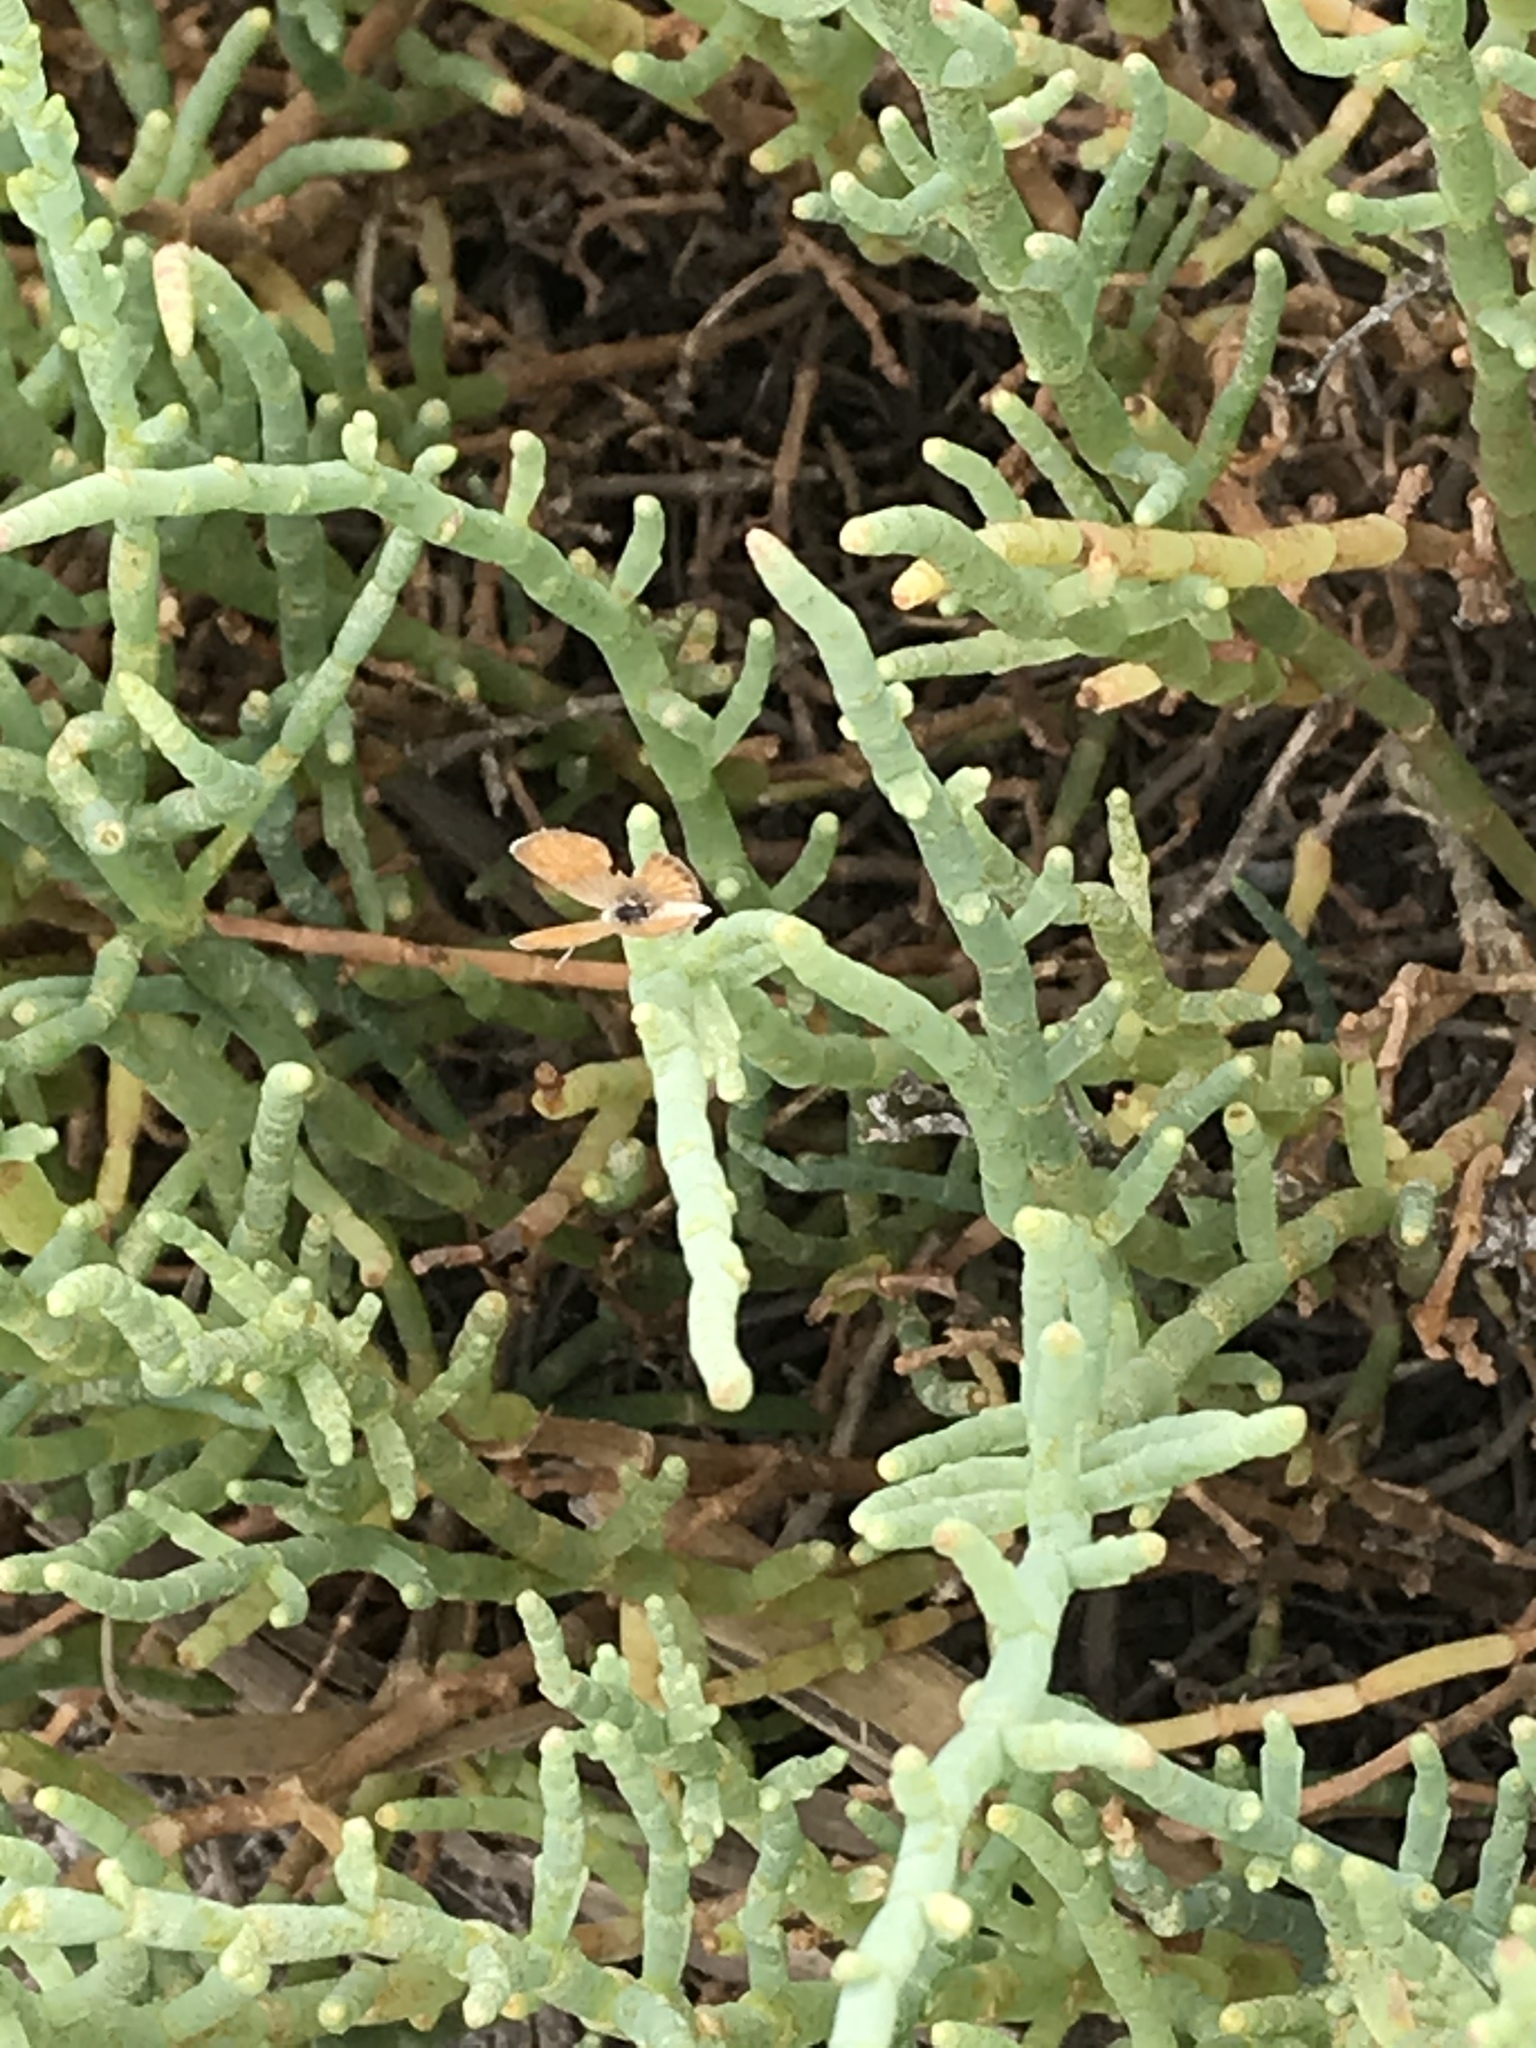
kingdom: Animalia
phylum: Arthropoda
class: Insecta
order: Lepidoptera
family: Lycaenidae
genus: Brephidium
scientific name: Brephidium exilis
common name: Pygmy blue
